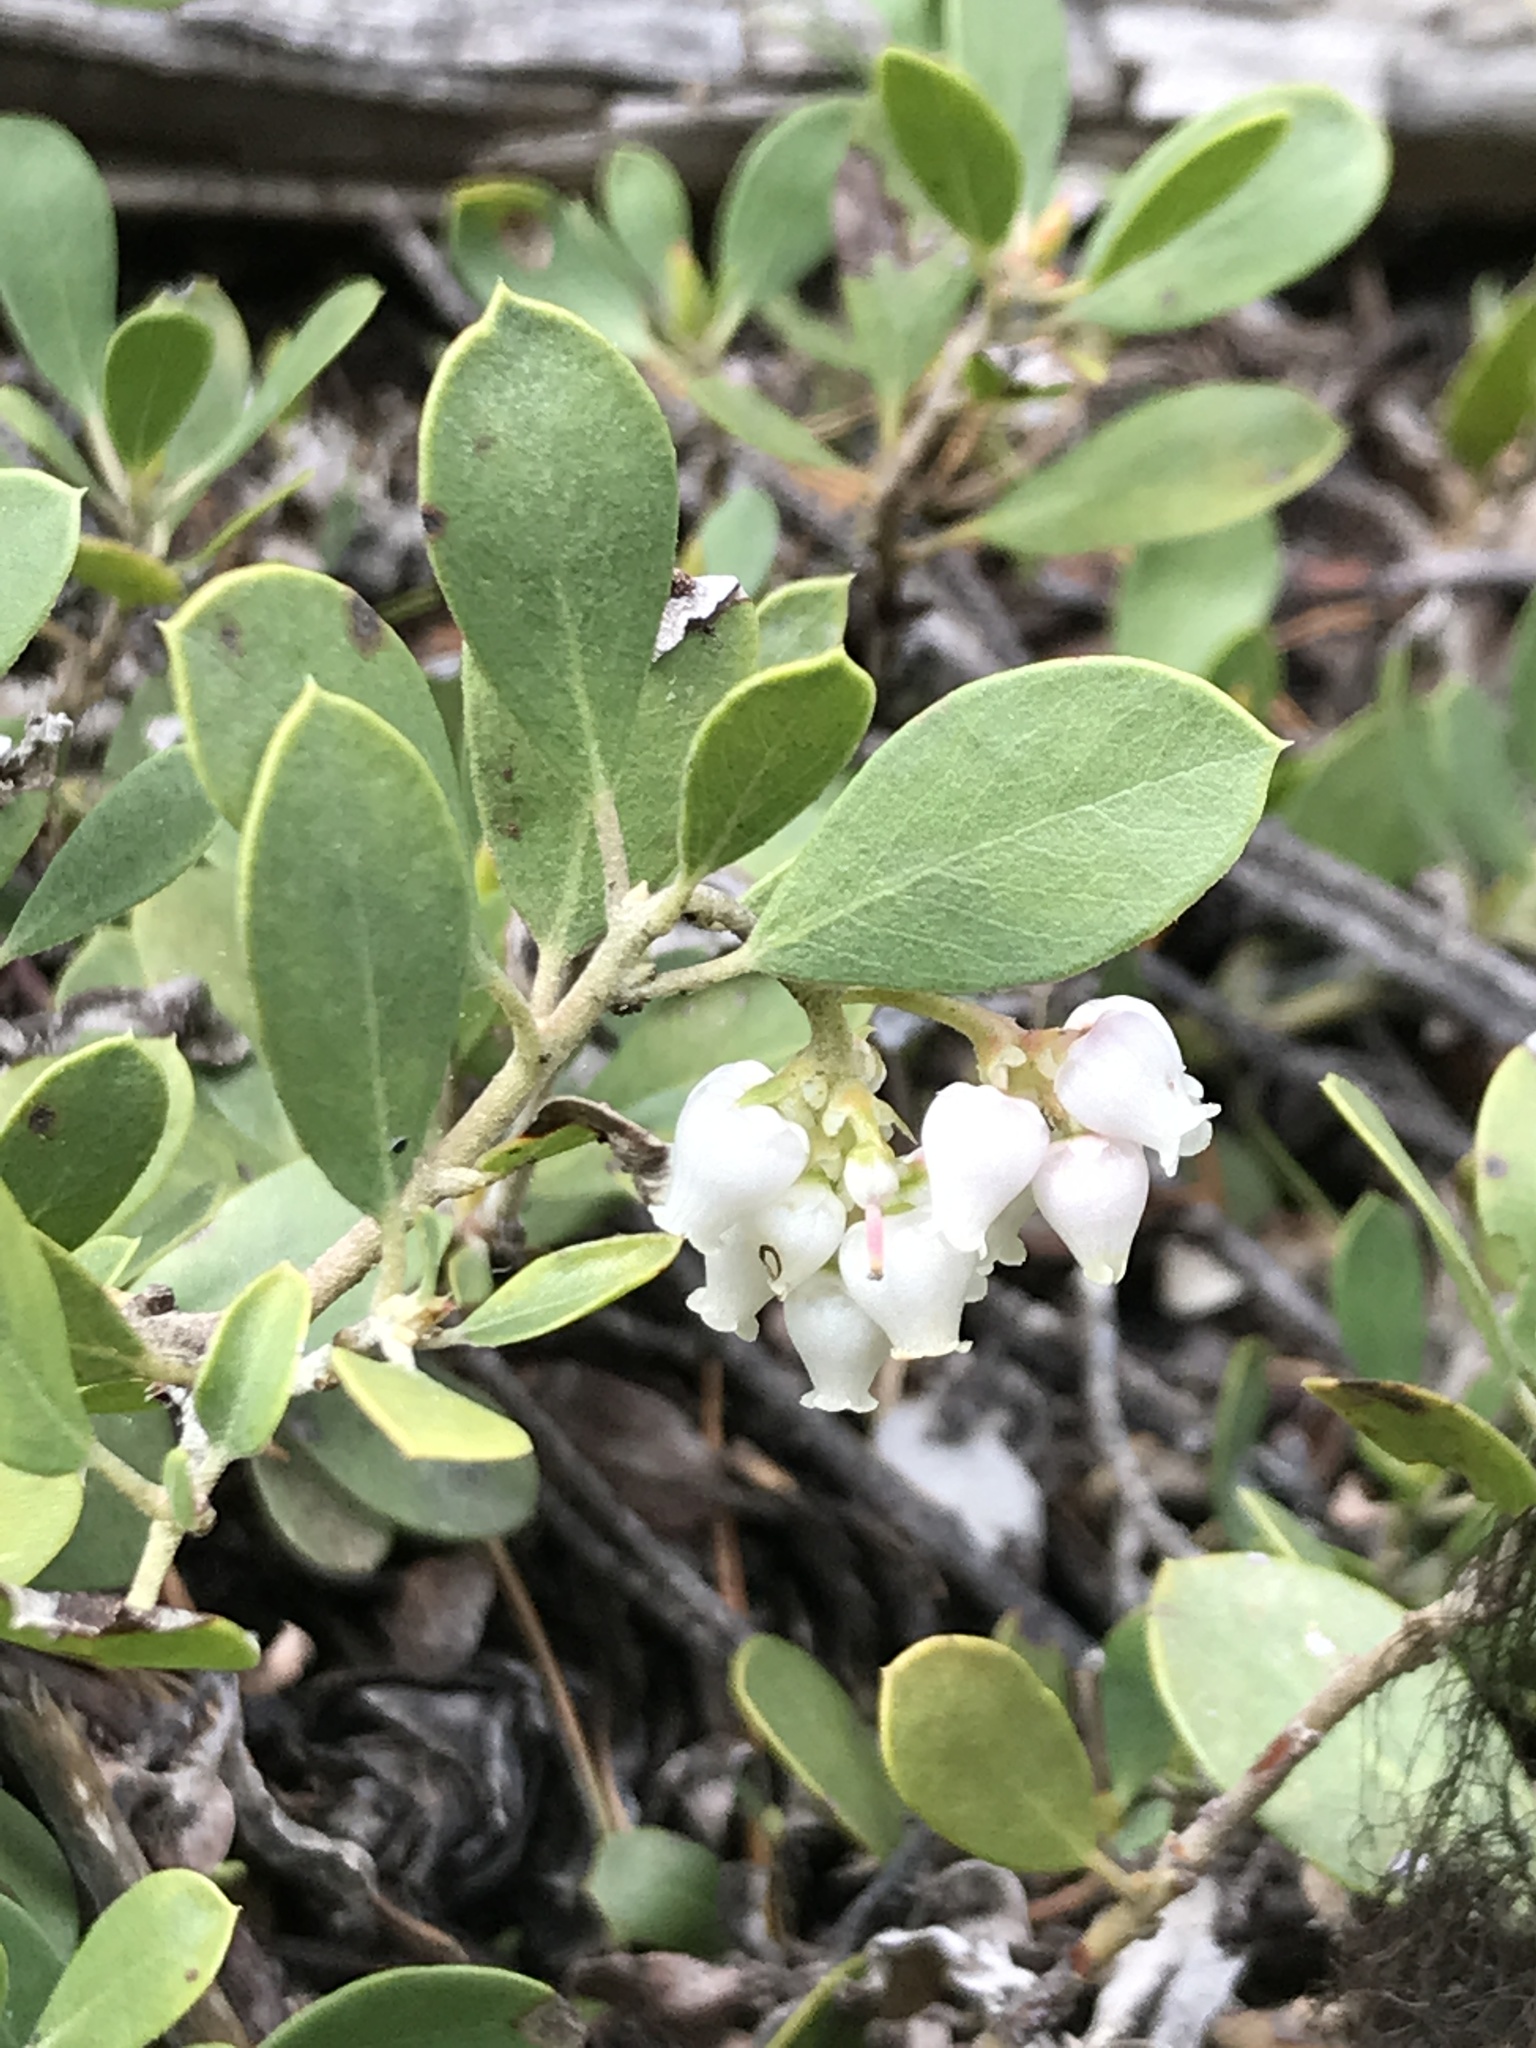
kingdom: Plantae
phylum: Tracheophyta
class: Magnoliopsida
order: Ericales
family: Ericaceae
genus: Arctostaphylos
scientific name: Arctostaphylos nevadensis
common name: Pinemat manzanita
